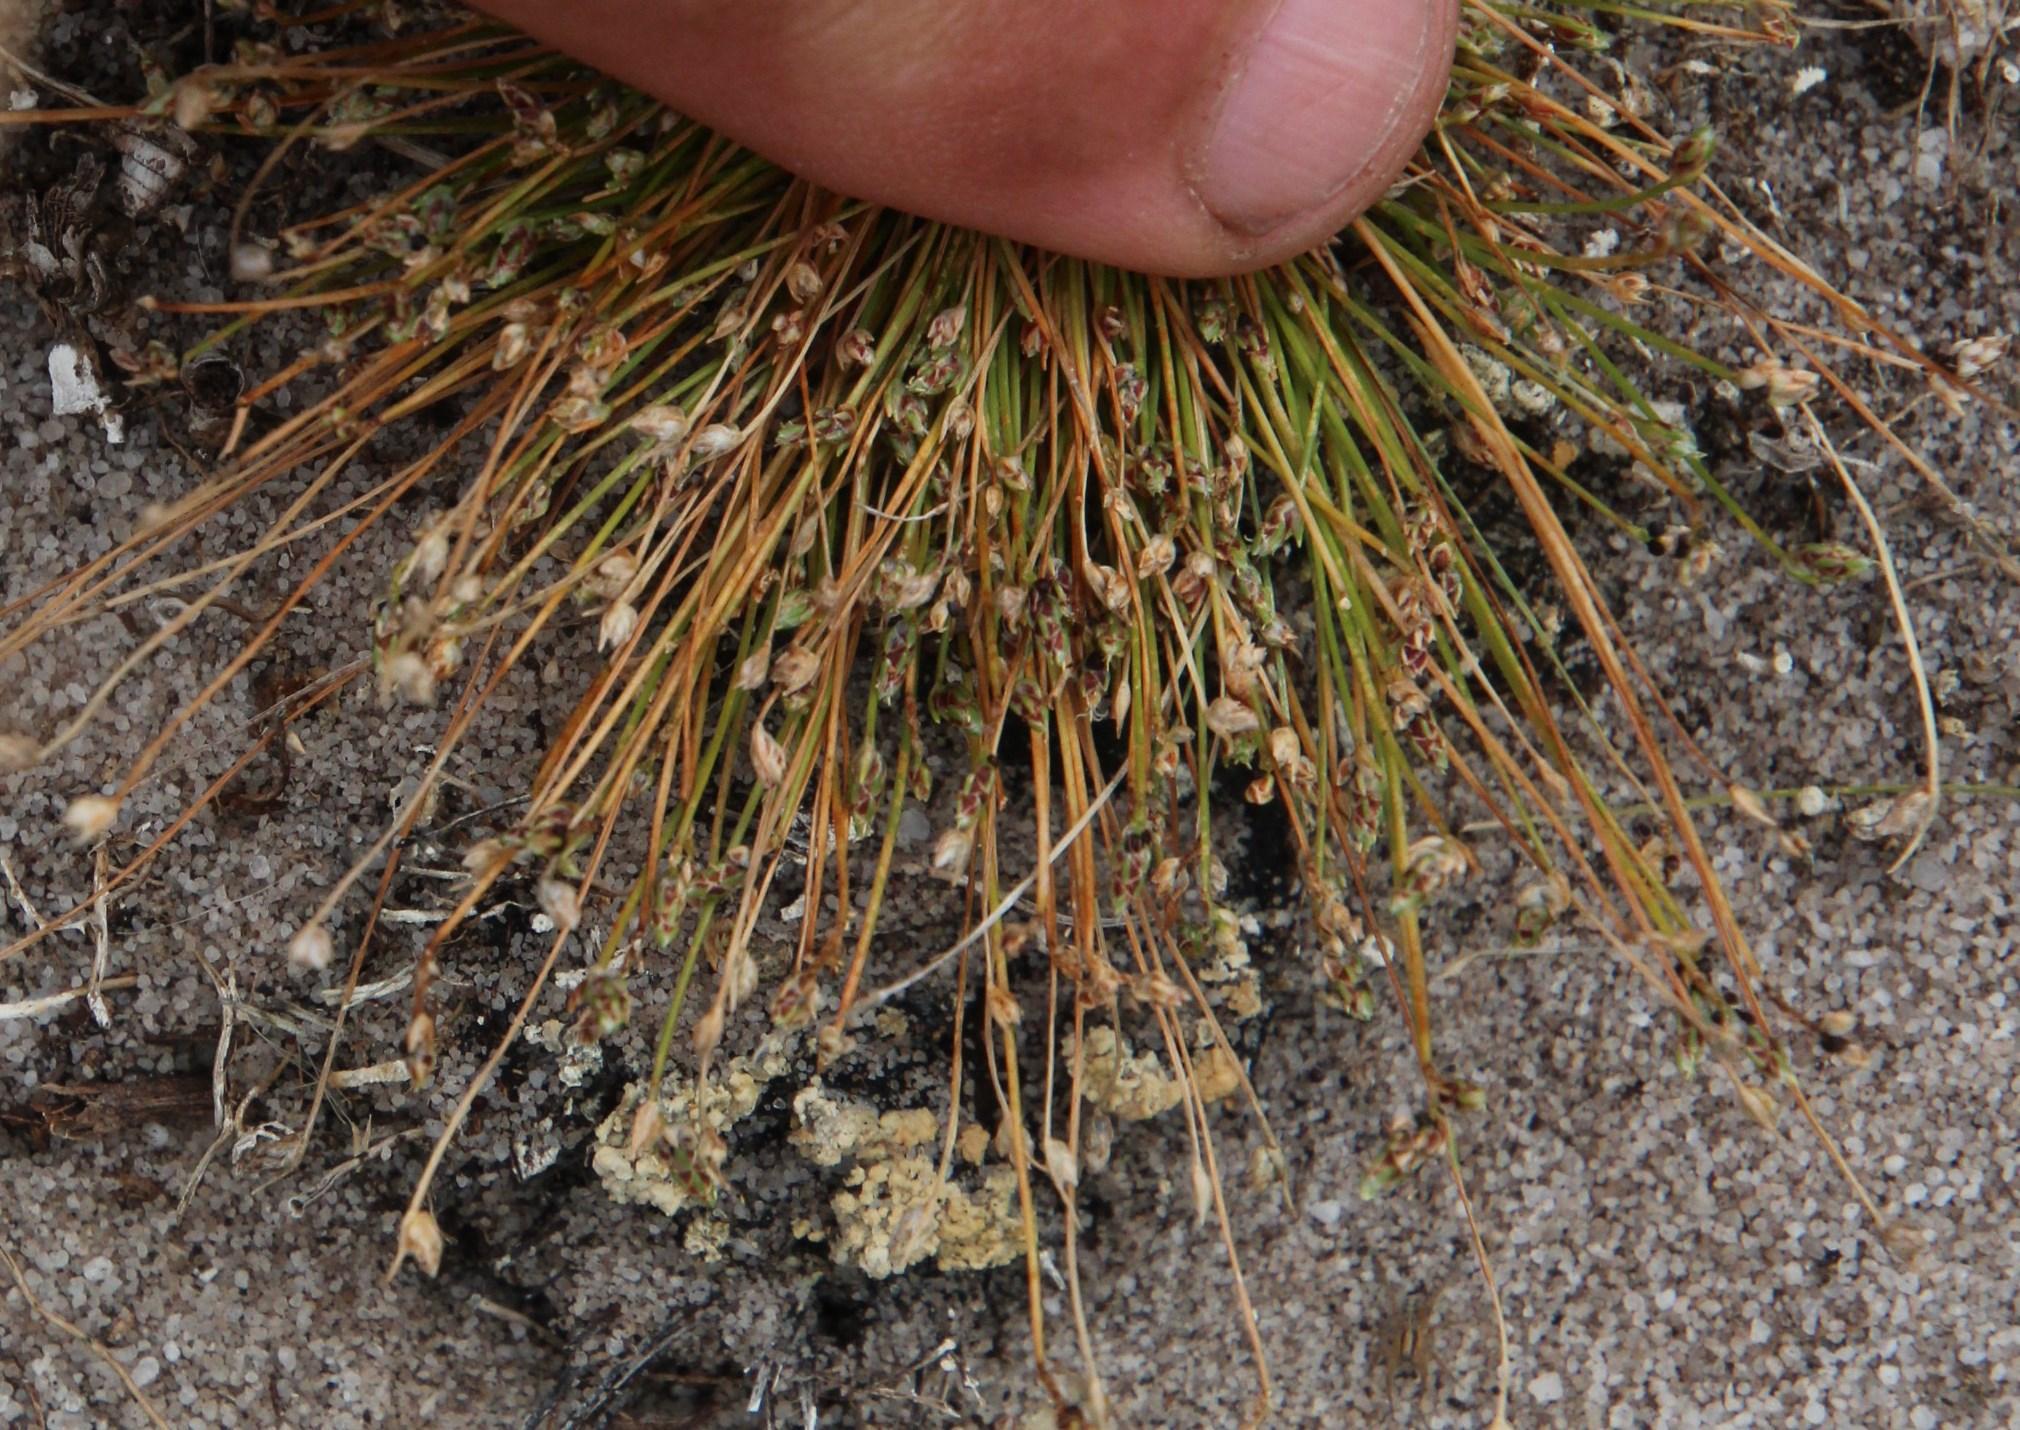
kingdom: Plantae
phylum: Tracheophyta
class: Liliopsida
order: Poales
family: Cyperaceae
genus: Isolepis
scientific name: Isolepis marginata
